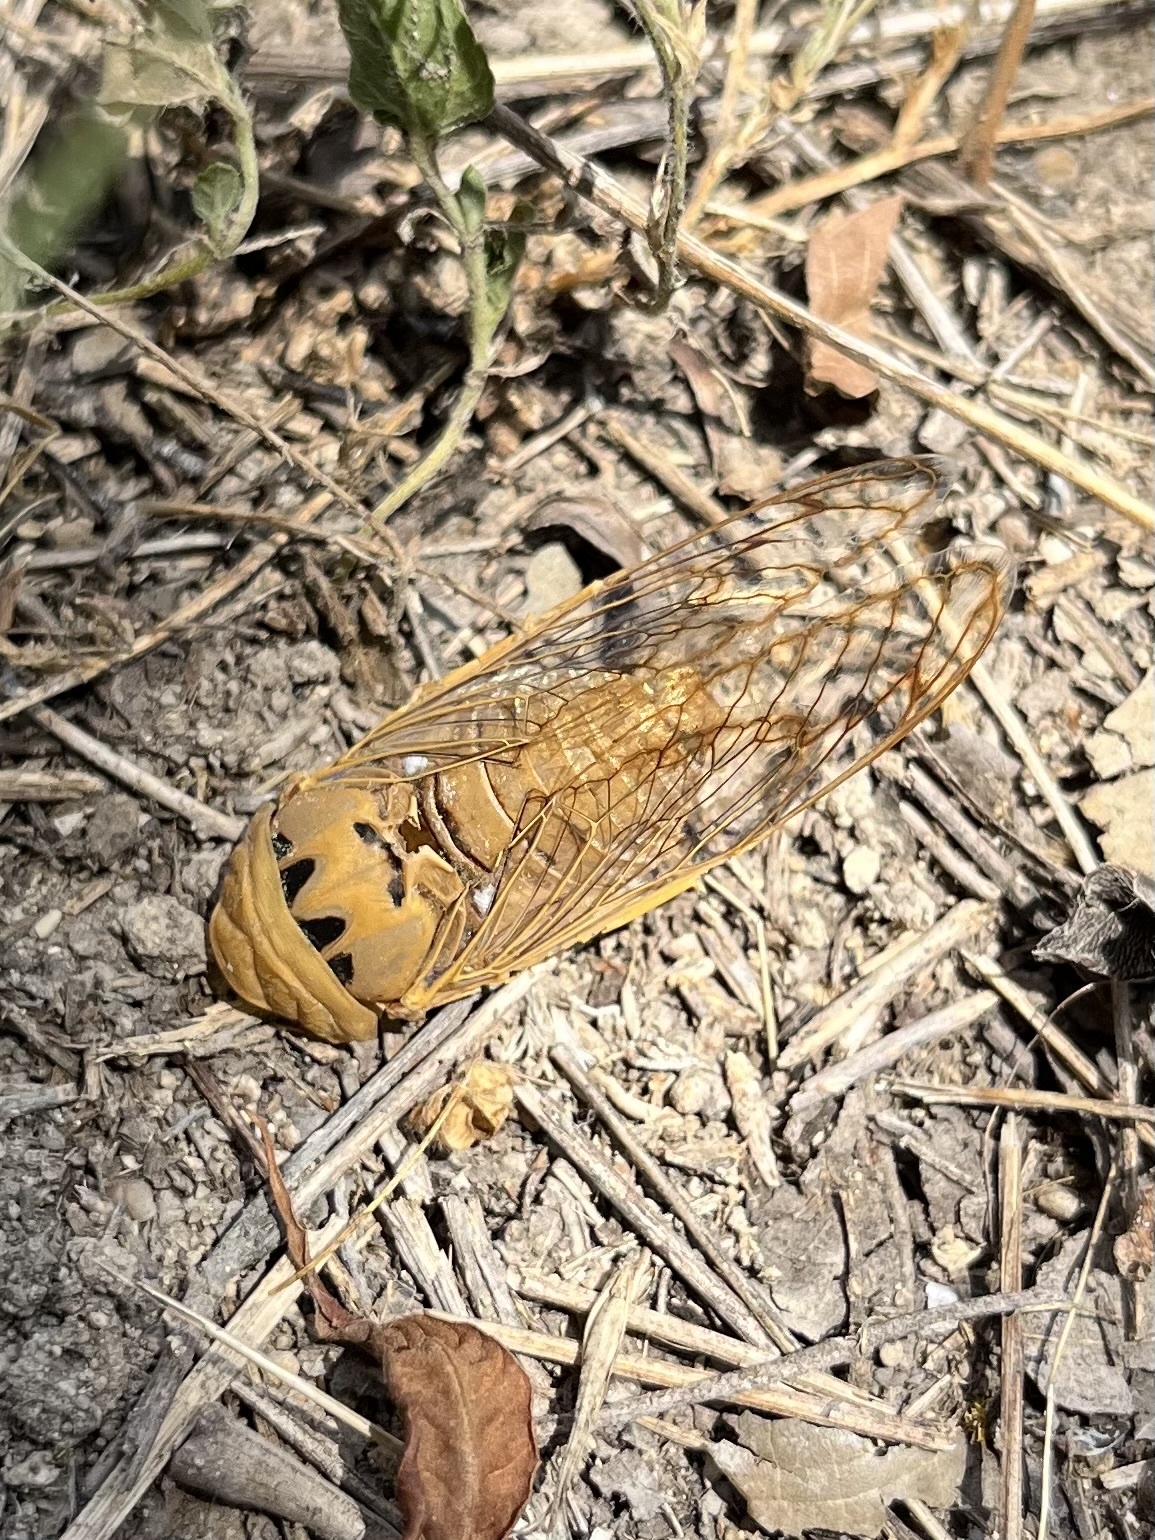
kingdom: Animalia
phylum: Arthropoda
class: Insecta
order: Hemiptera
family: Cicadidae
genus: Neotibicen
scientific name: Neotibicen superbus
